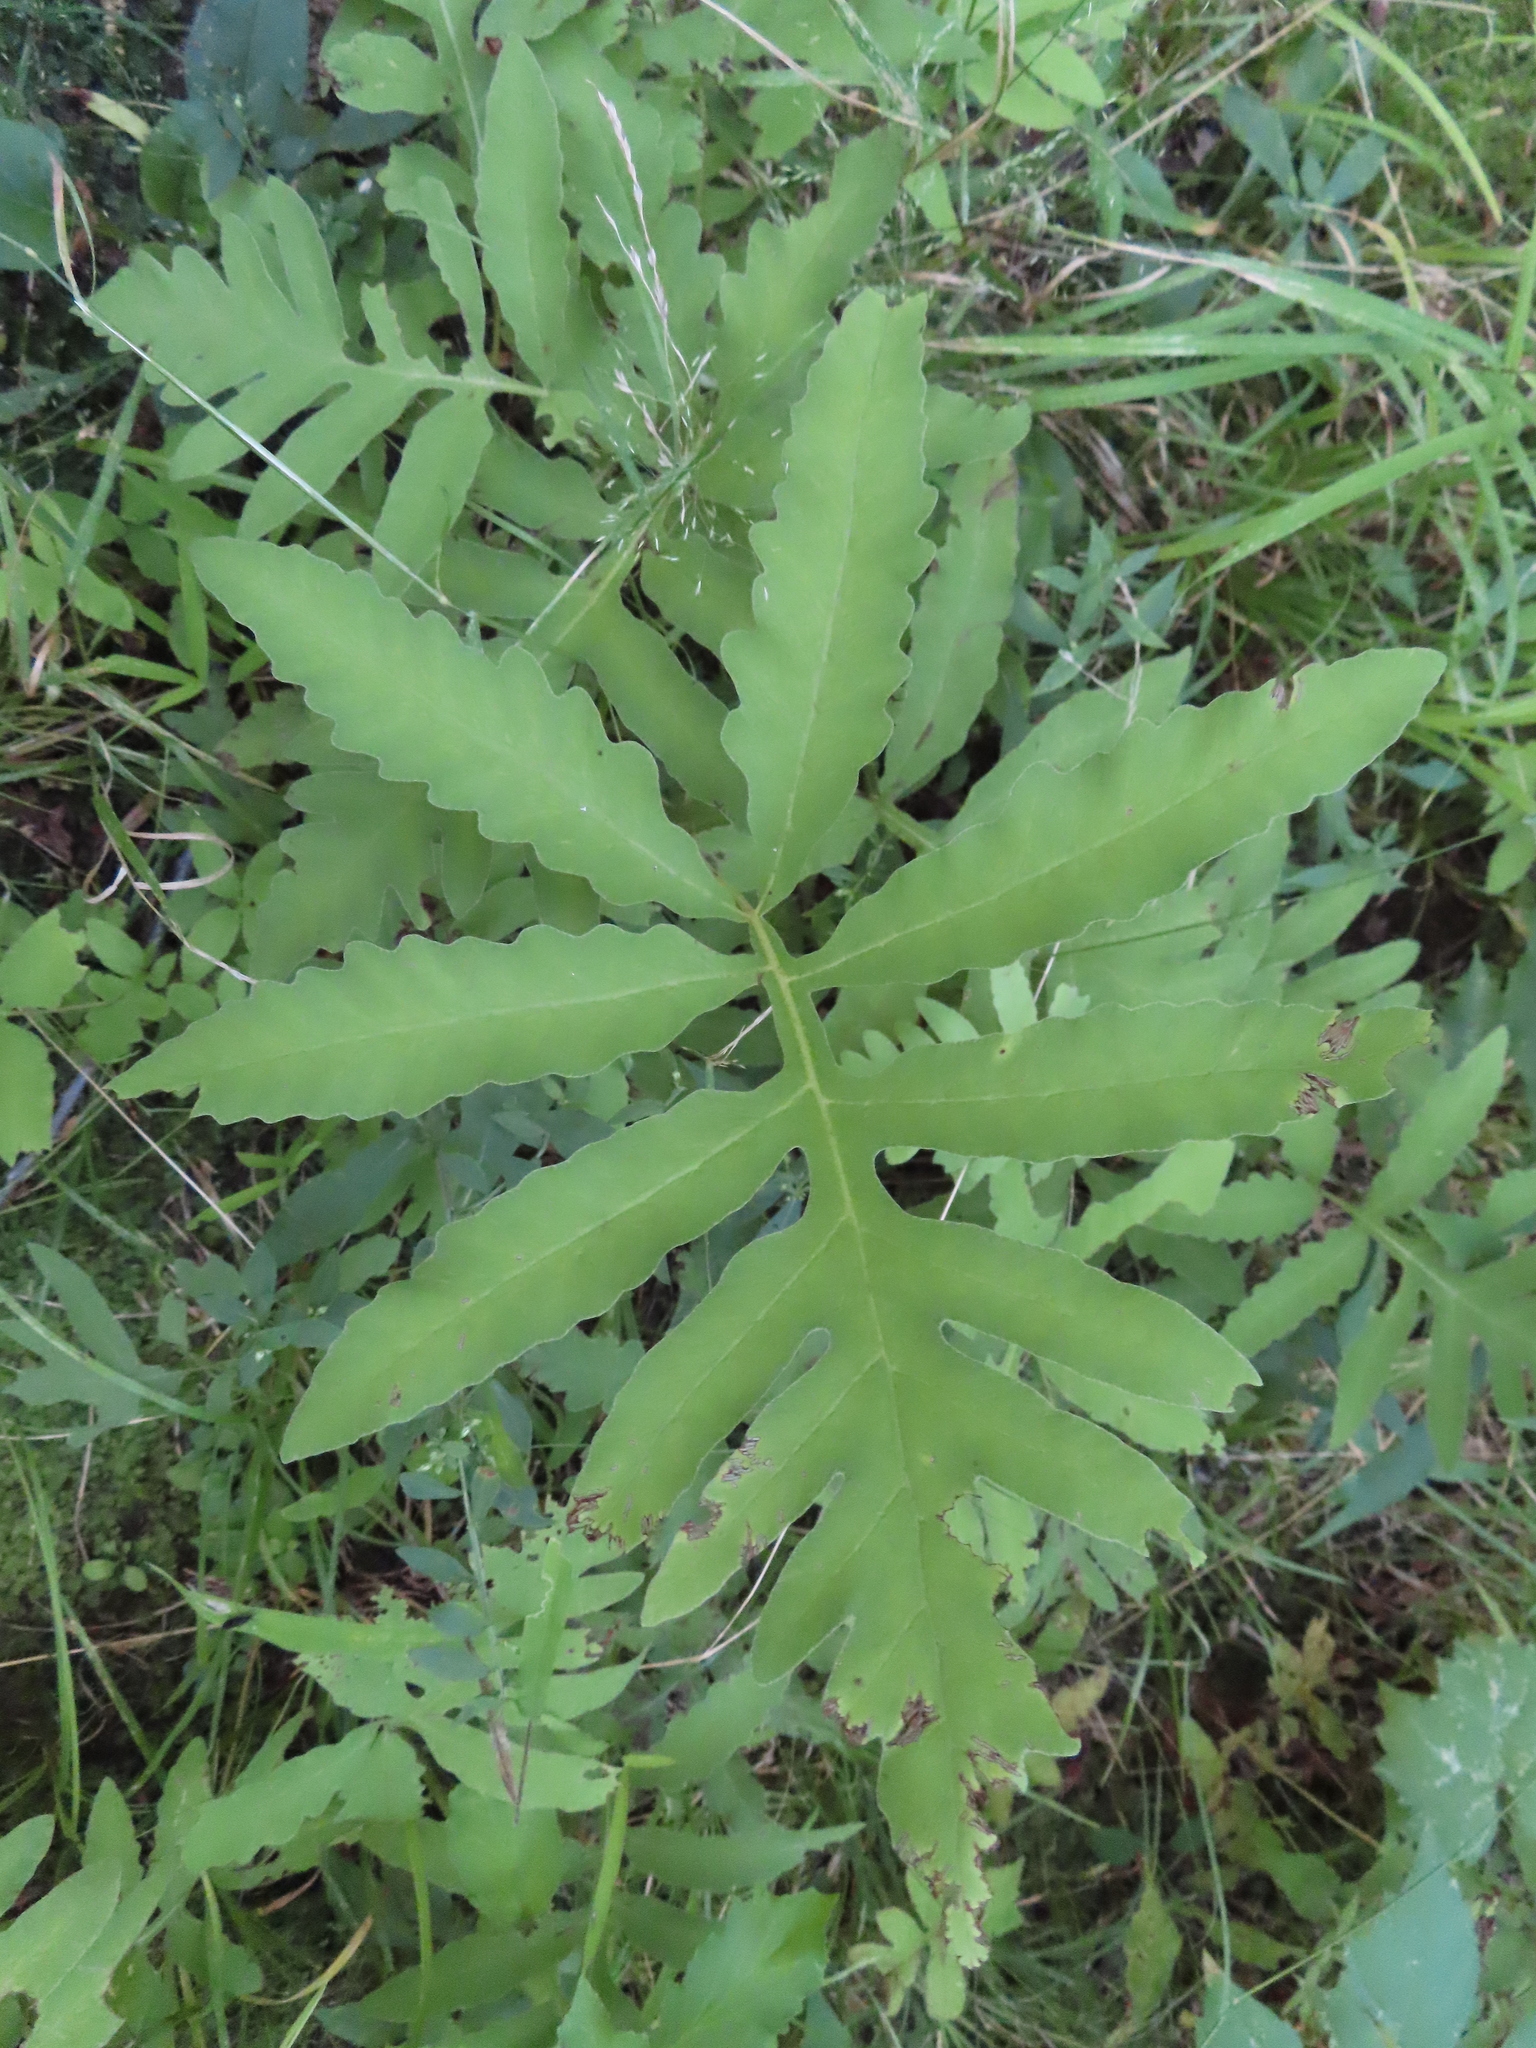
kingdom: Plantae
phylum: Tracheophyta
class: Polypodiopsida
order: Polypodiales
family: Onocleaceae
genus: Onoclea
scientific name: Onoclea sensibilis
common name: Sensitive fern
